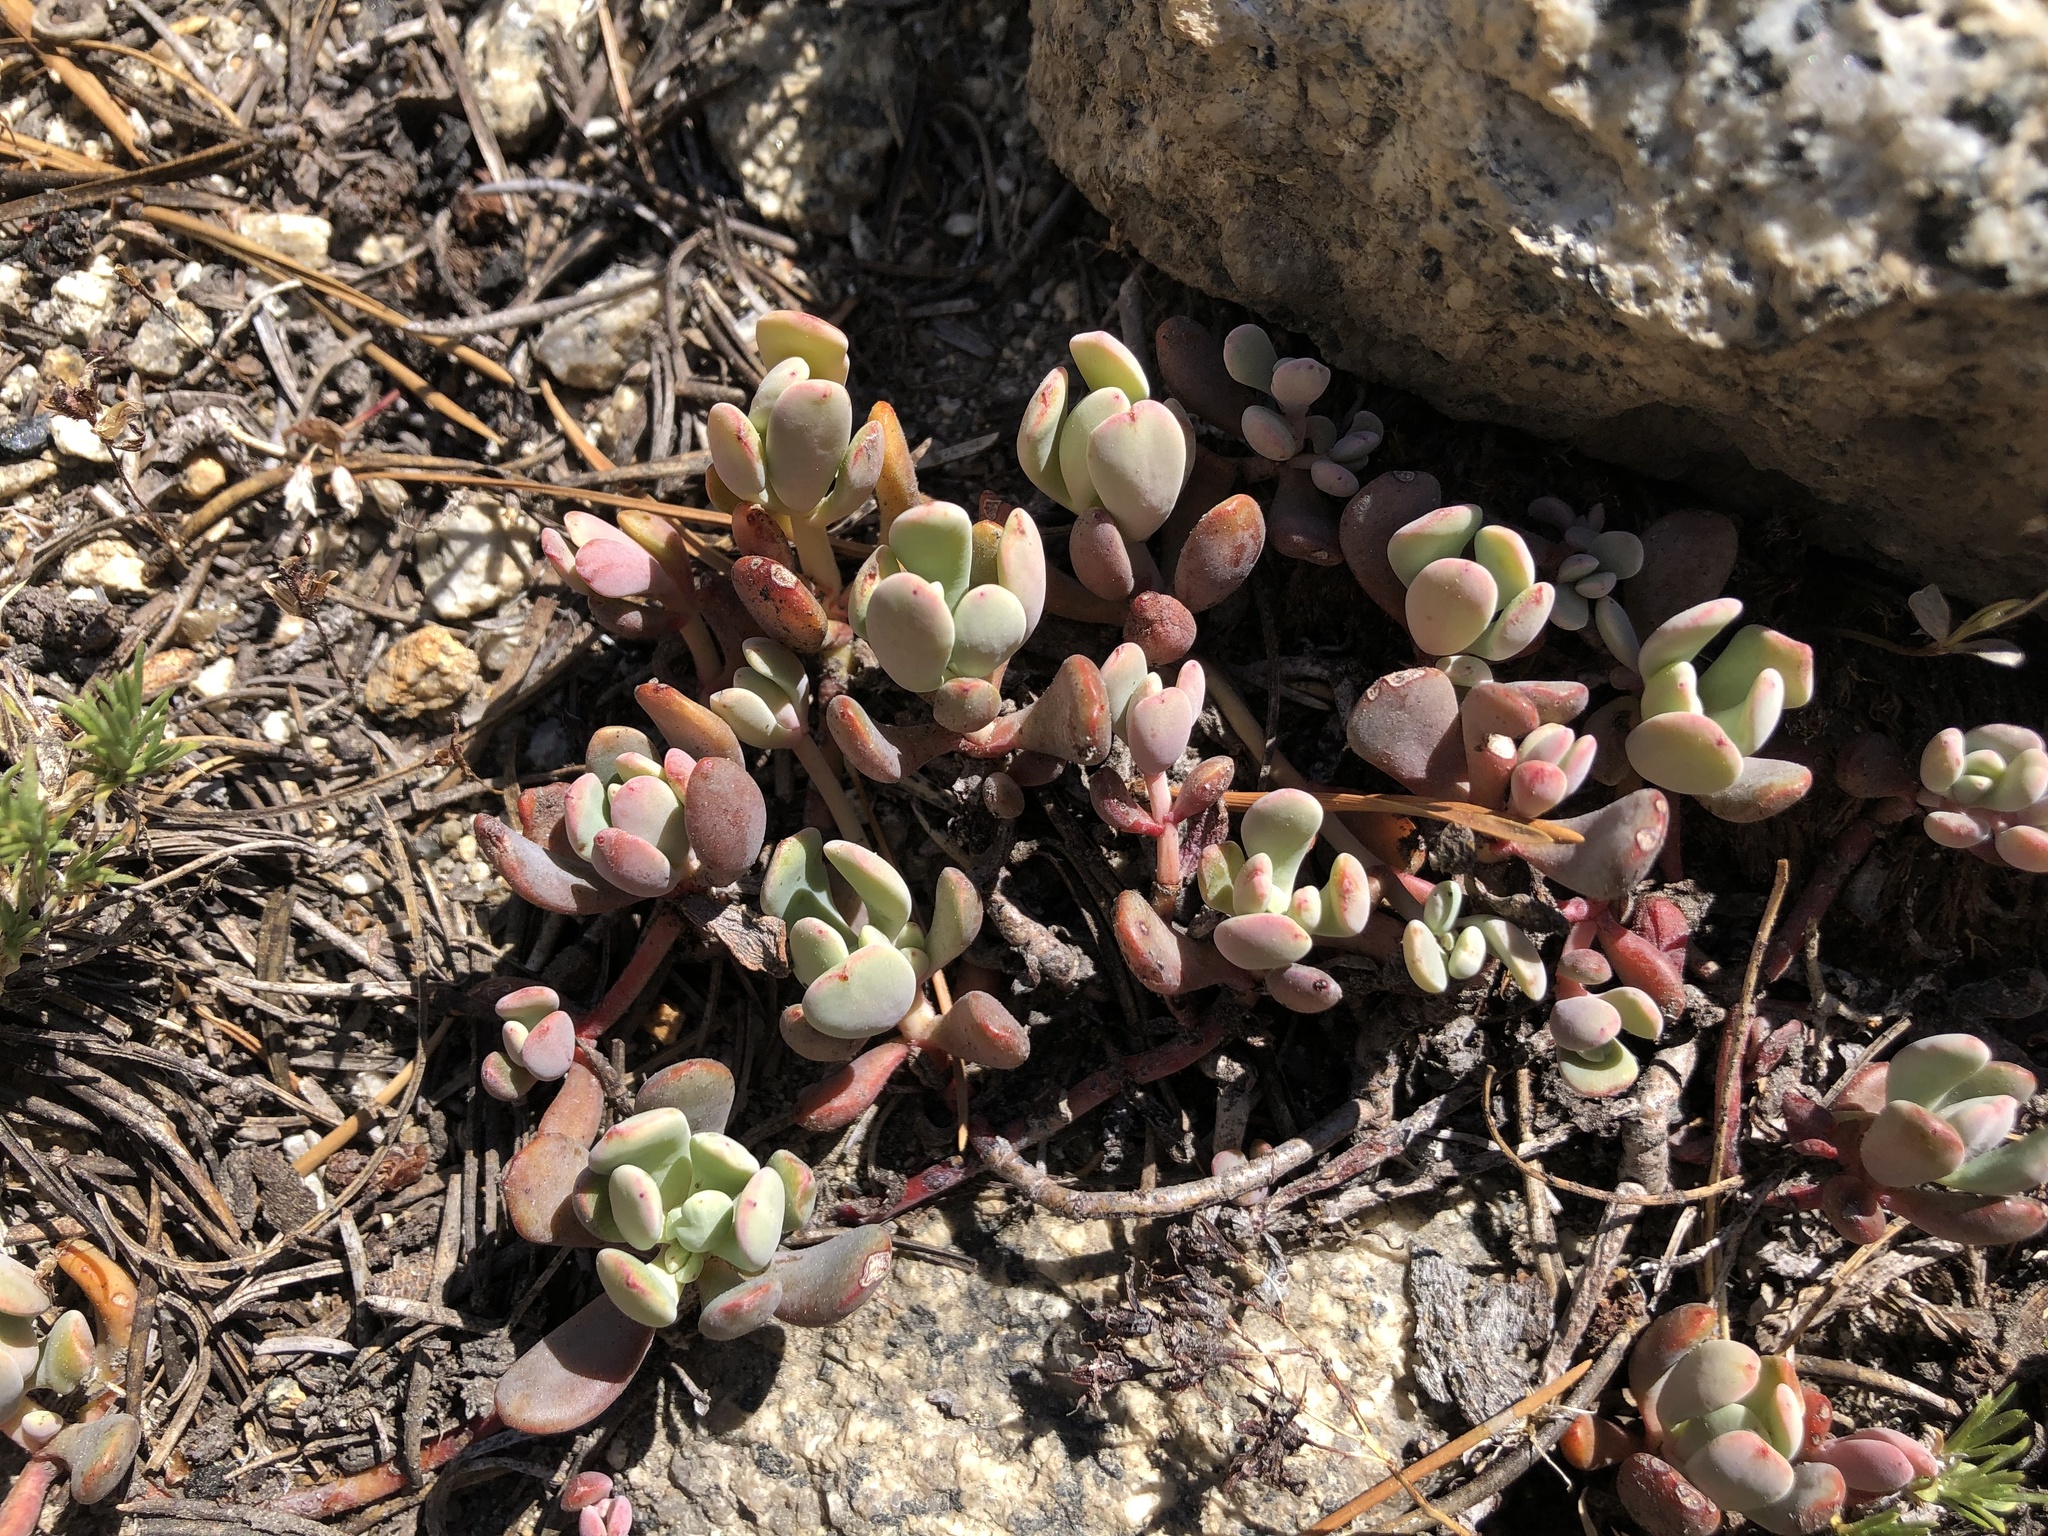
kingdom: Plantae
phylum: Tracheophyta
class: Magnoliopsida
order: Saxifragales
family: Crassulaceae
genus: Sedum
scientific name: Sedum obtusatum
